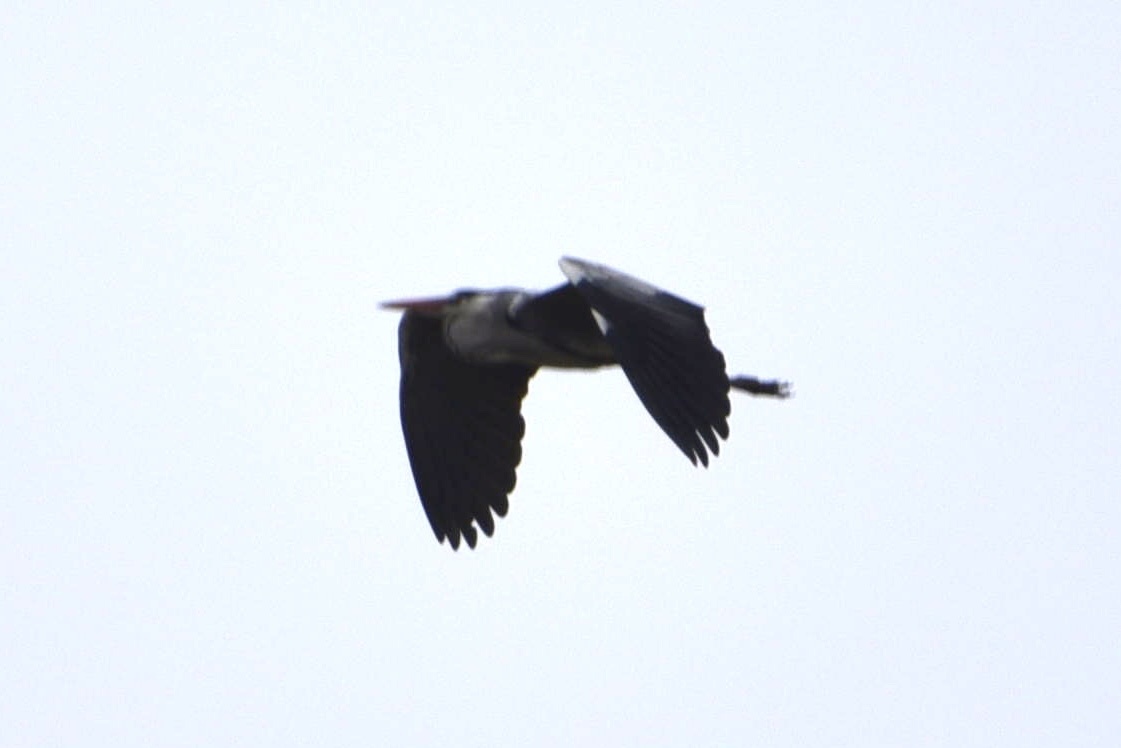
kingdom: Animalia
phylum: Chordata
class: Aves
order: Pelecaniformes
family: Ardeidae
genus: Ardea
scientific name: Ardea cinerea
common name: Grey heron
